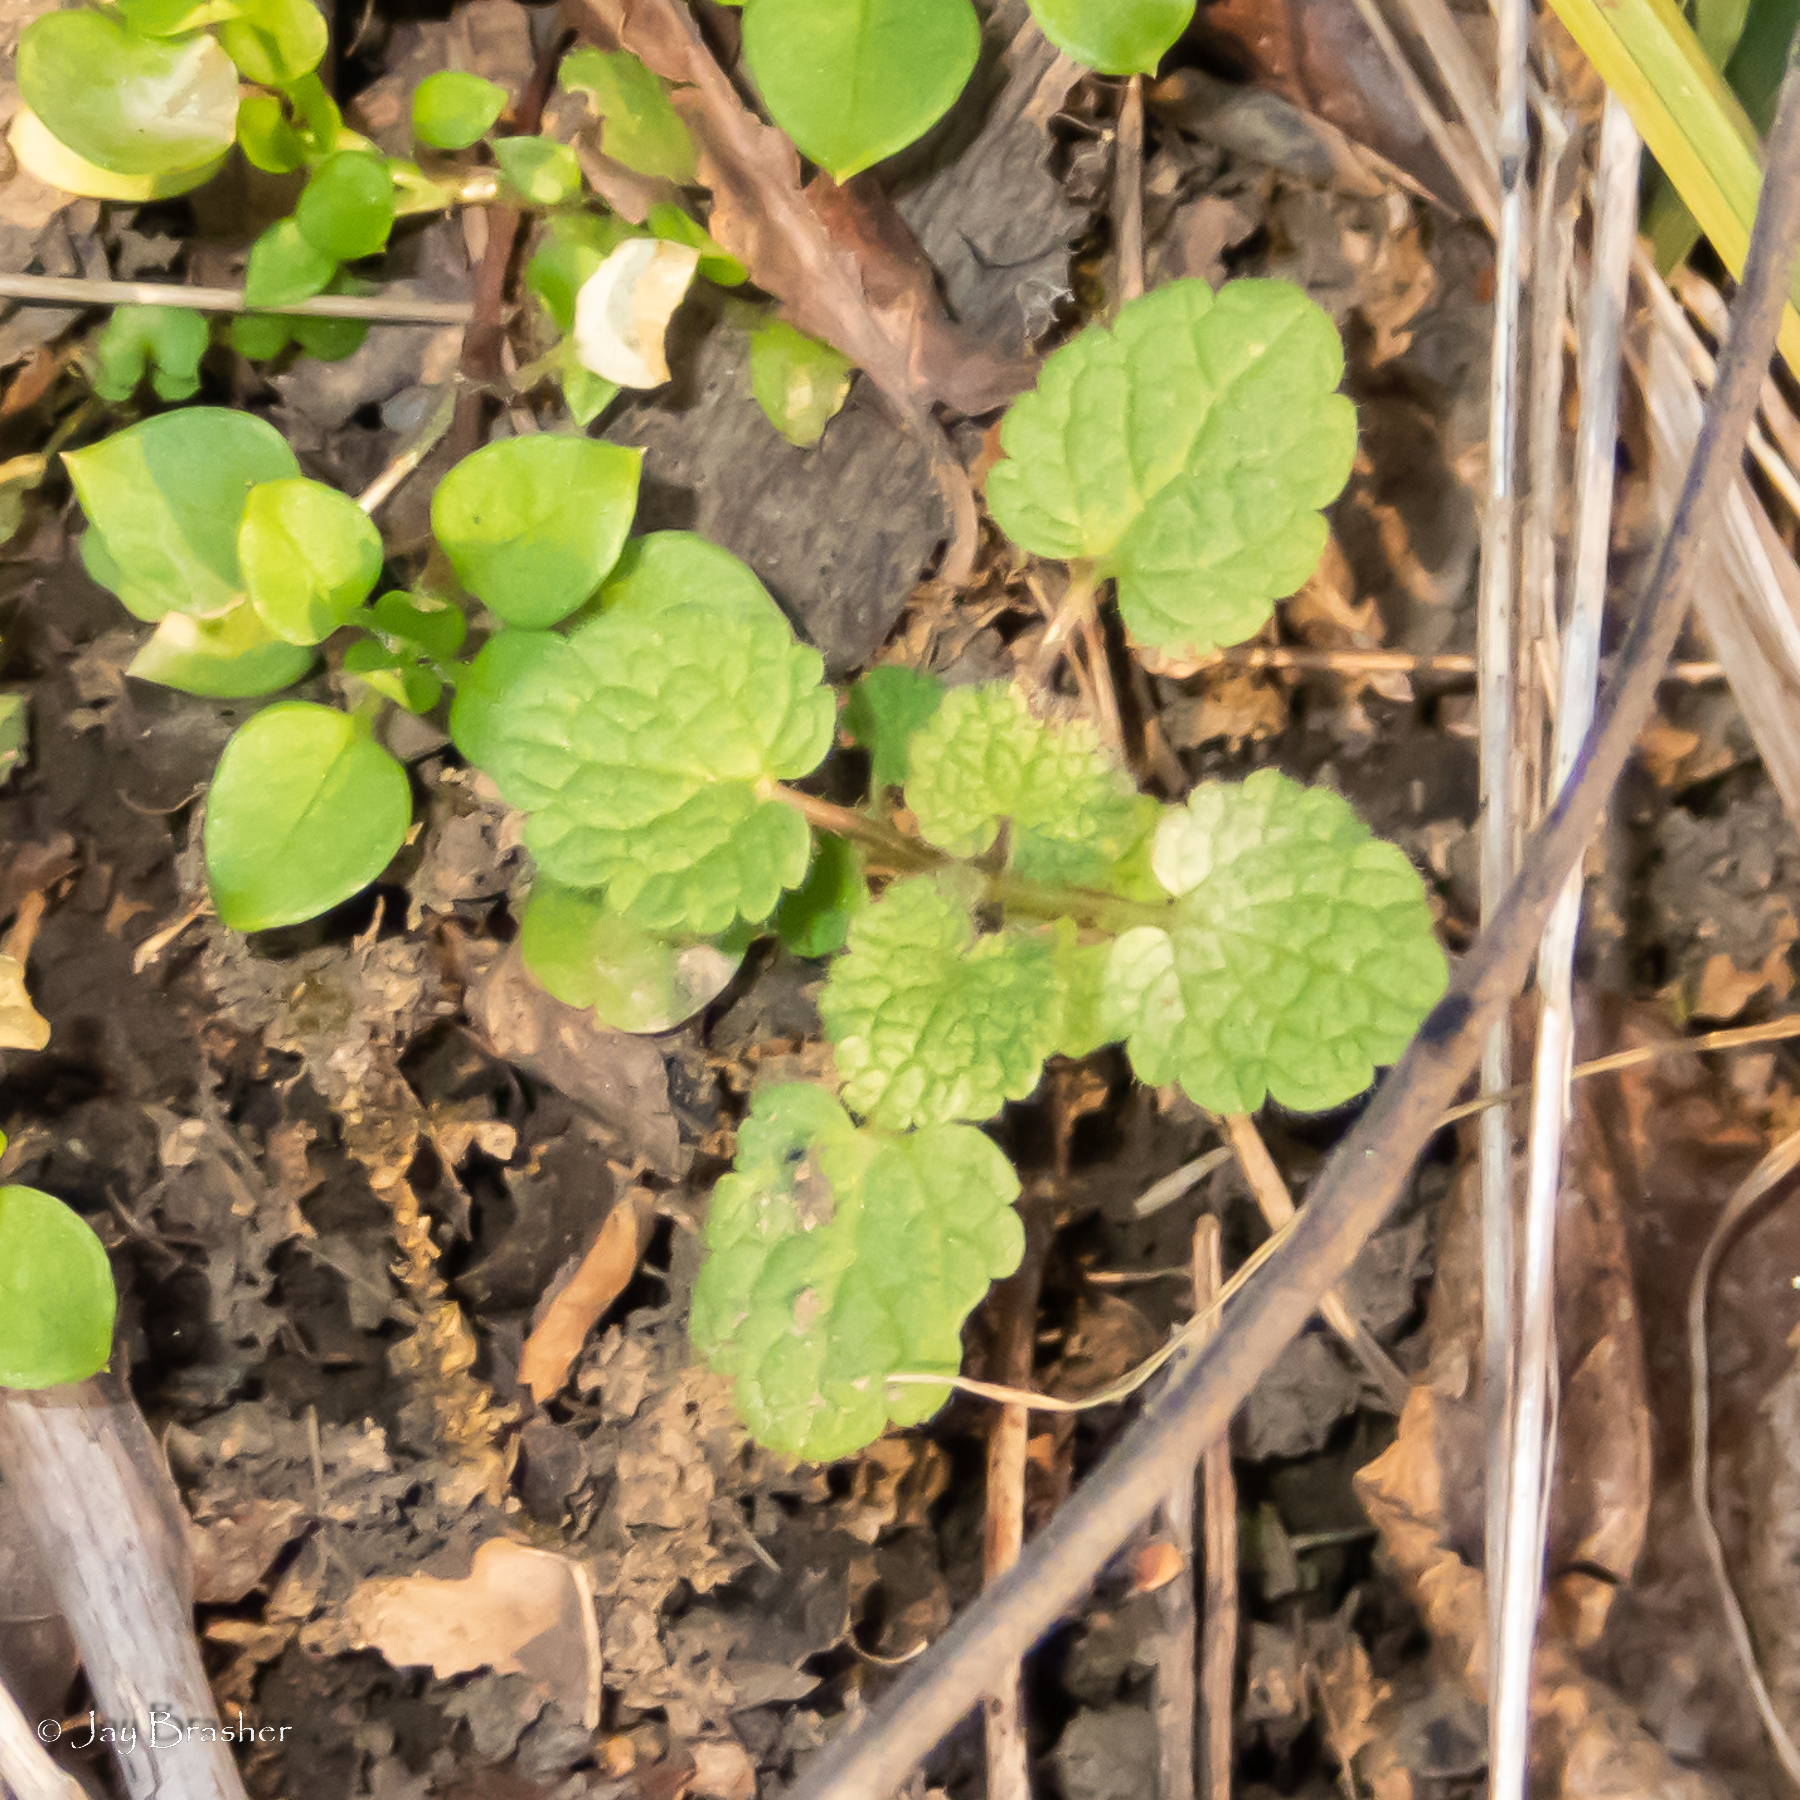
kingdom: Plantae
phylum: Tracheophyta
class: Magnoliopsida
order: Lamiales
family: Lamiaceae
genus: Lamium
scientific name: Lamium purpureum
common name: Red dead-nettle
